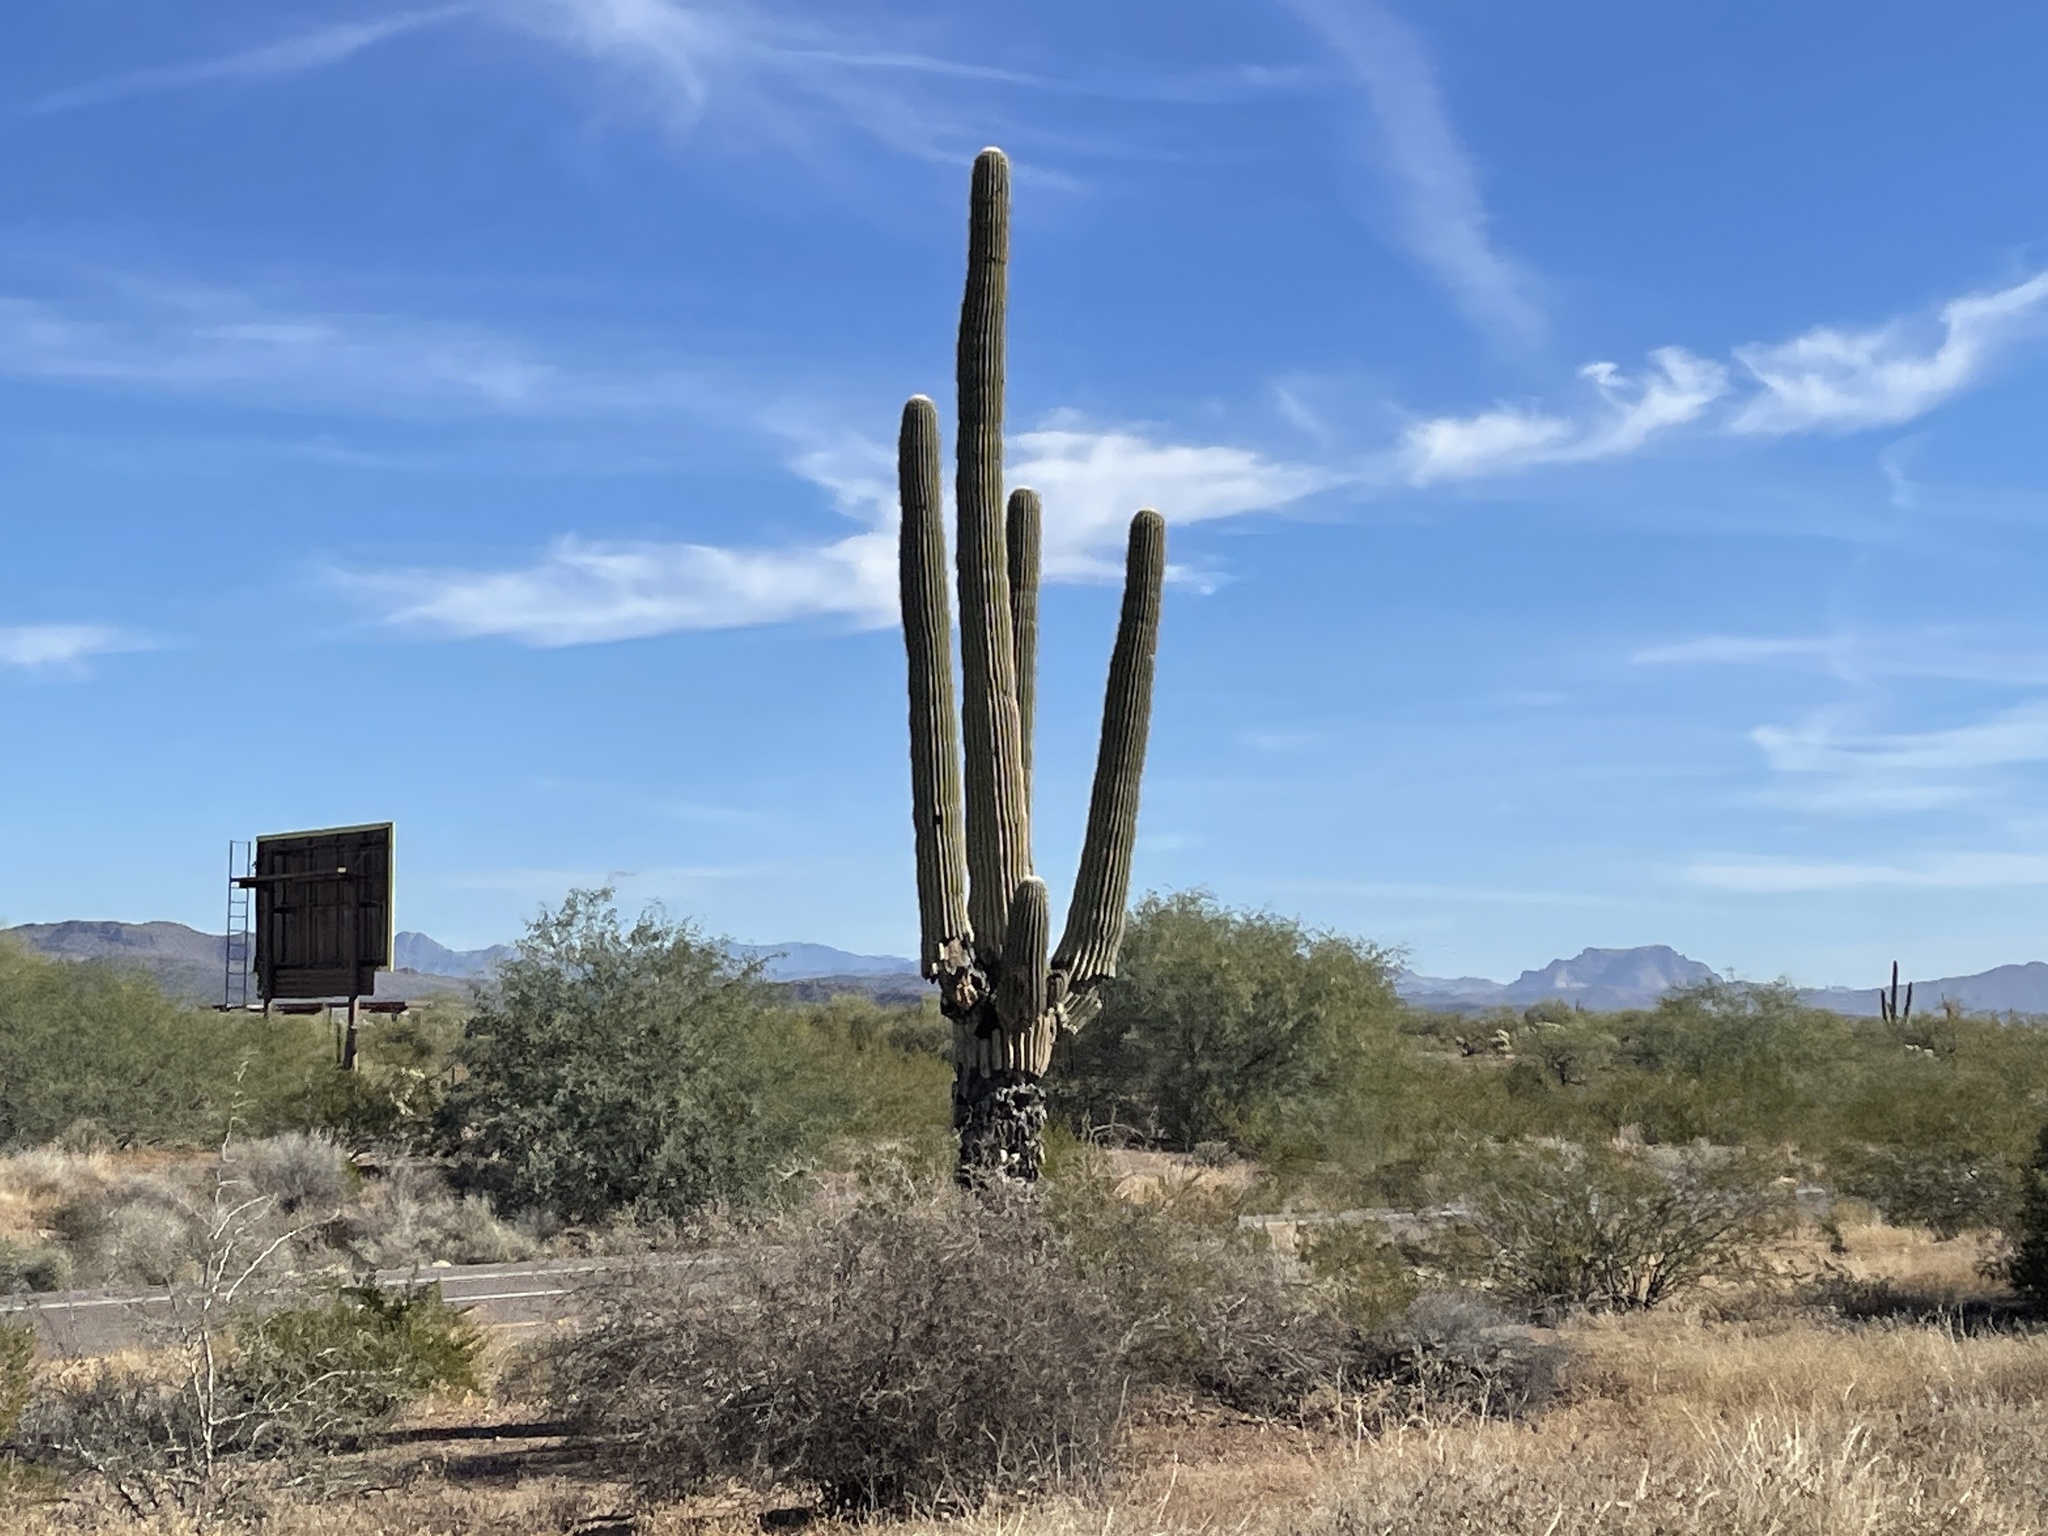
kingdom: Plantae
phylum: Tracheophyta
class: Magnoliopsida
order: Caryophyllales
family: Cactaceae
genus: Carnegiea
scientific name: Carnegiea gigantea
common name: Saguaro
